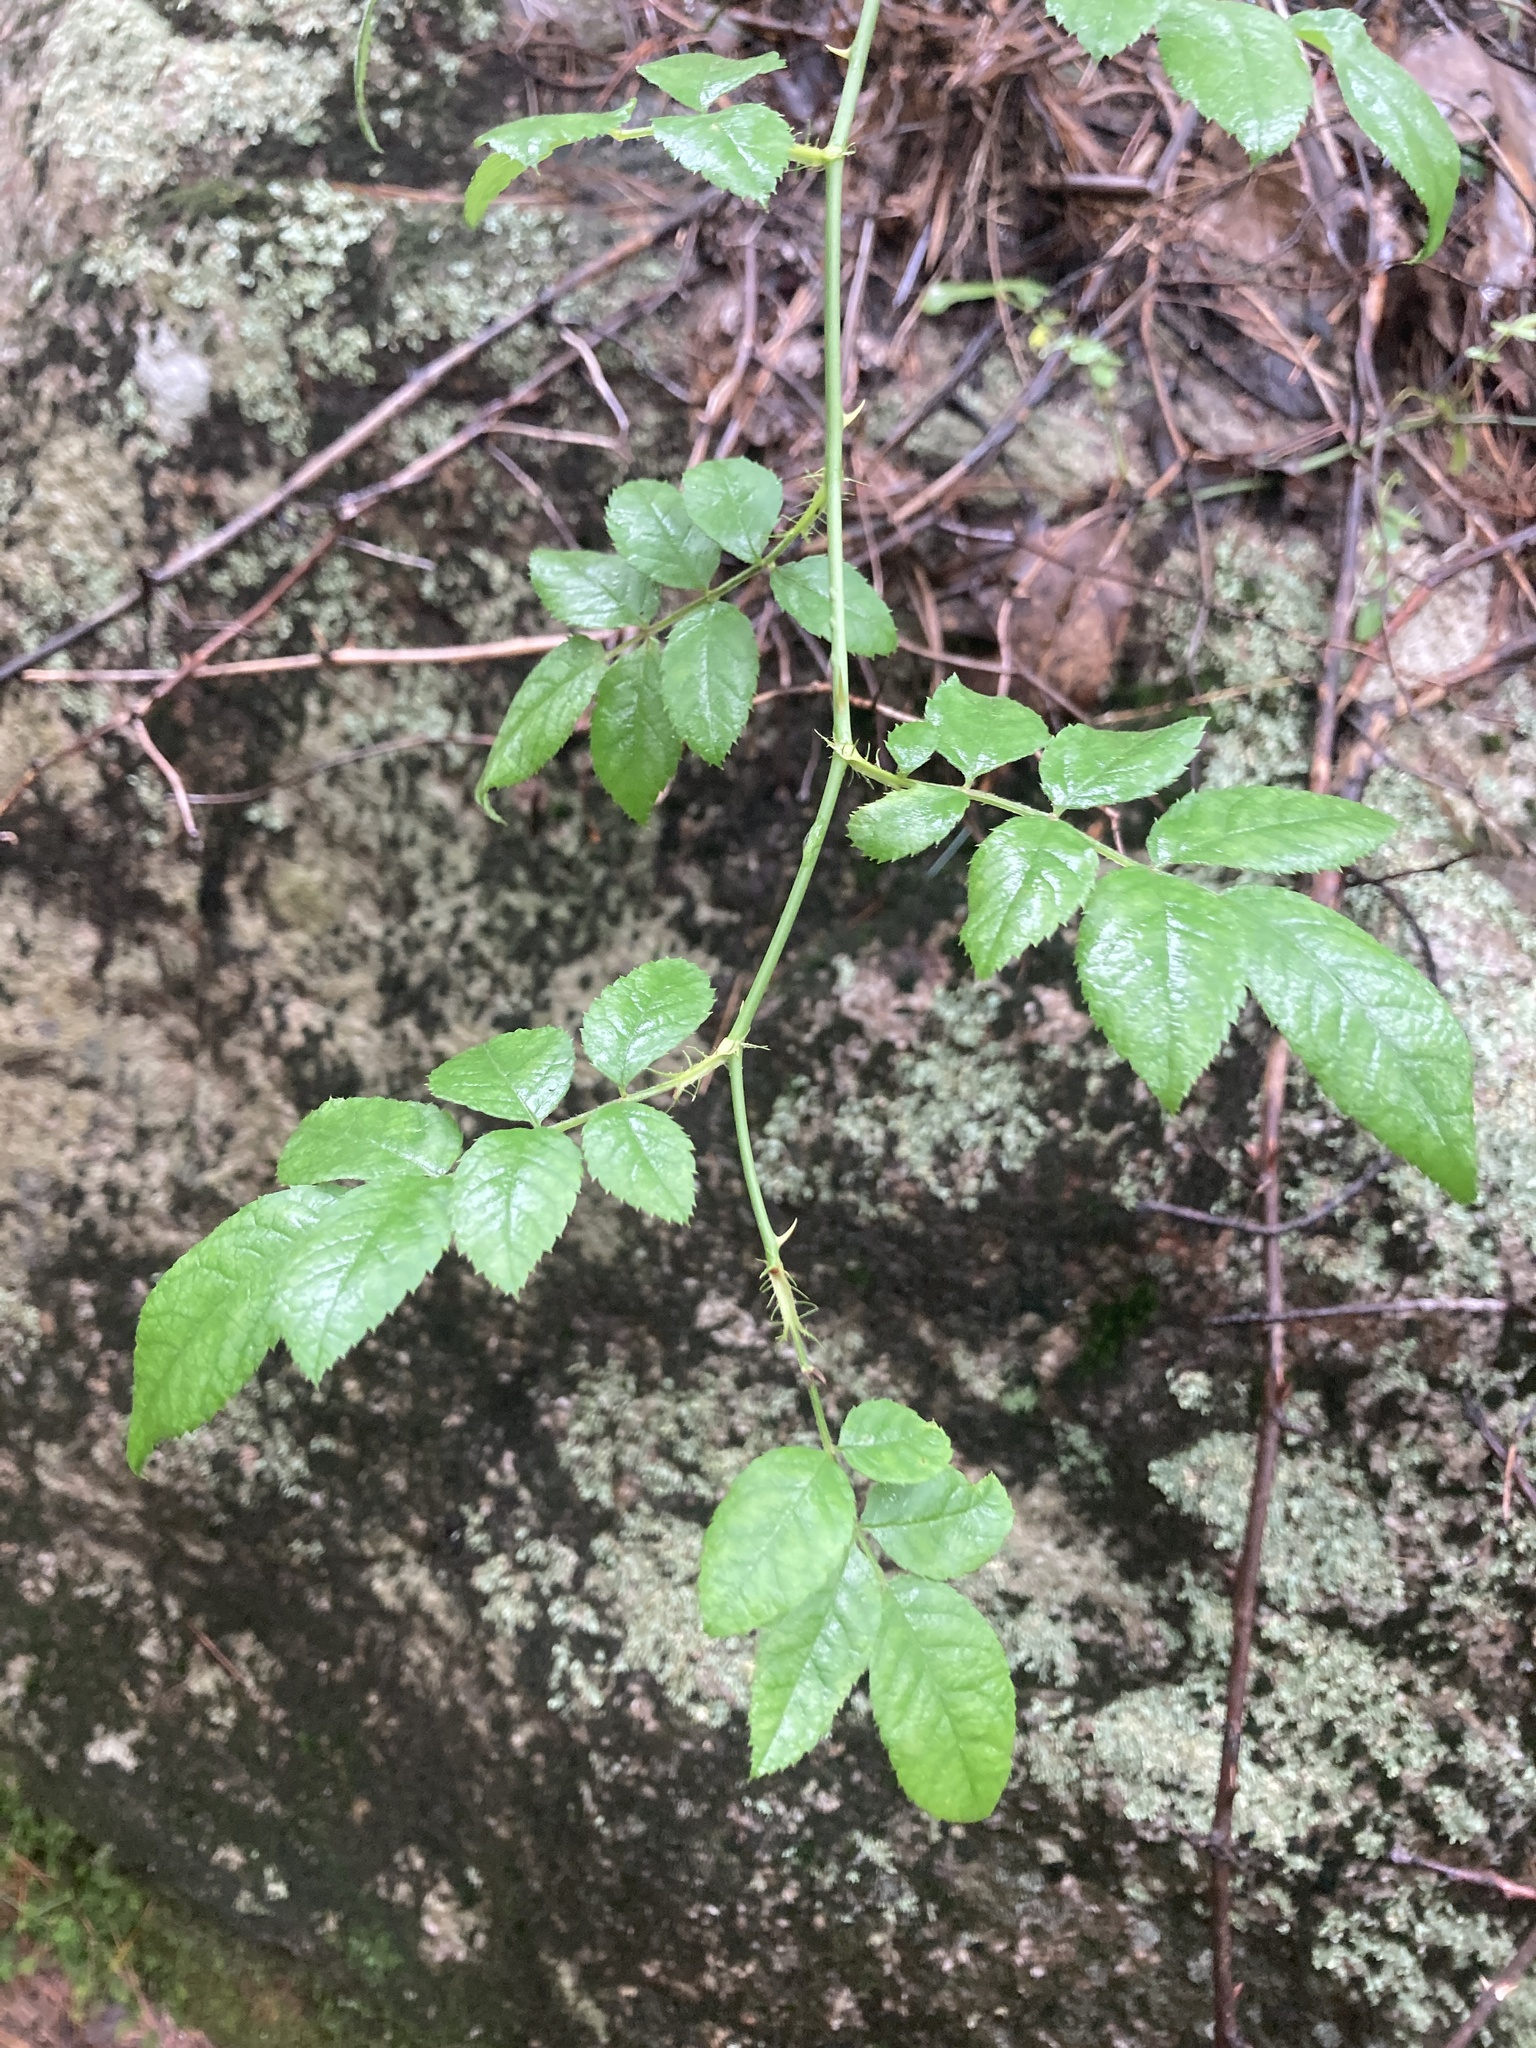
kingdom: Plantae
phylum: Tracheophyta
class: Magnoliopsida
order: Rosales
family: Rosaceae
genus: Rosa
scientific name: Rosa multiflora
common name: Multiflora rose
